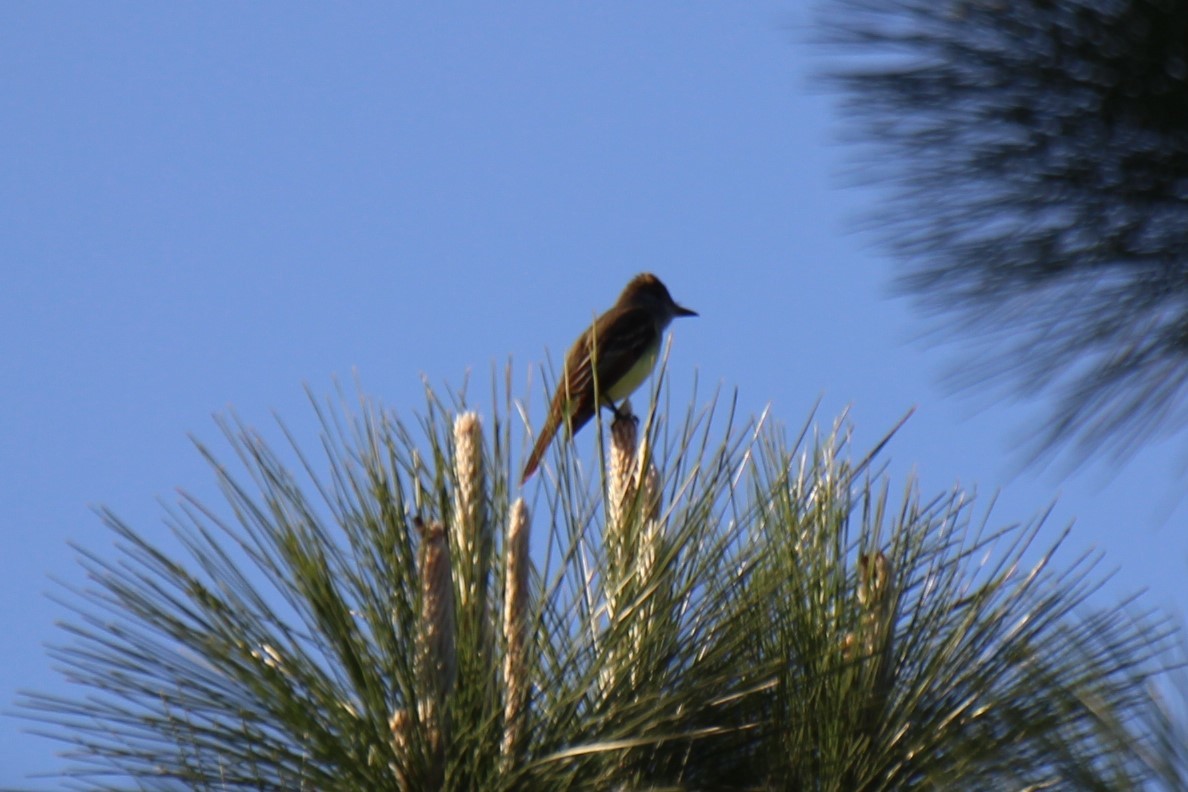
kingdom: Animalia
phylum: Chordata
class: Aves
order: Passeriformes
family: Tyrannidae
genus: Myiarchus
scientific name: Myiarchus crinitus
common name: Great crested flycatcher
